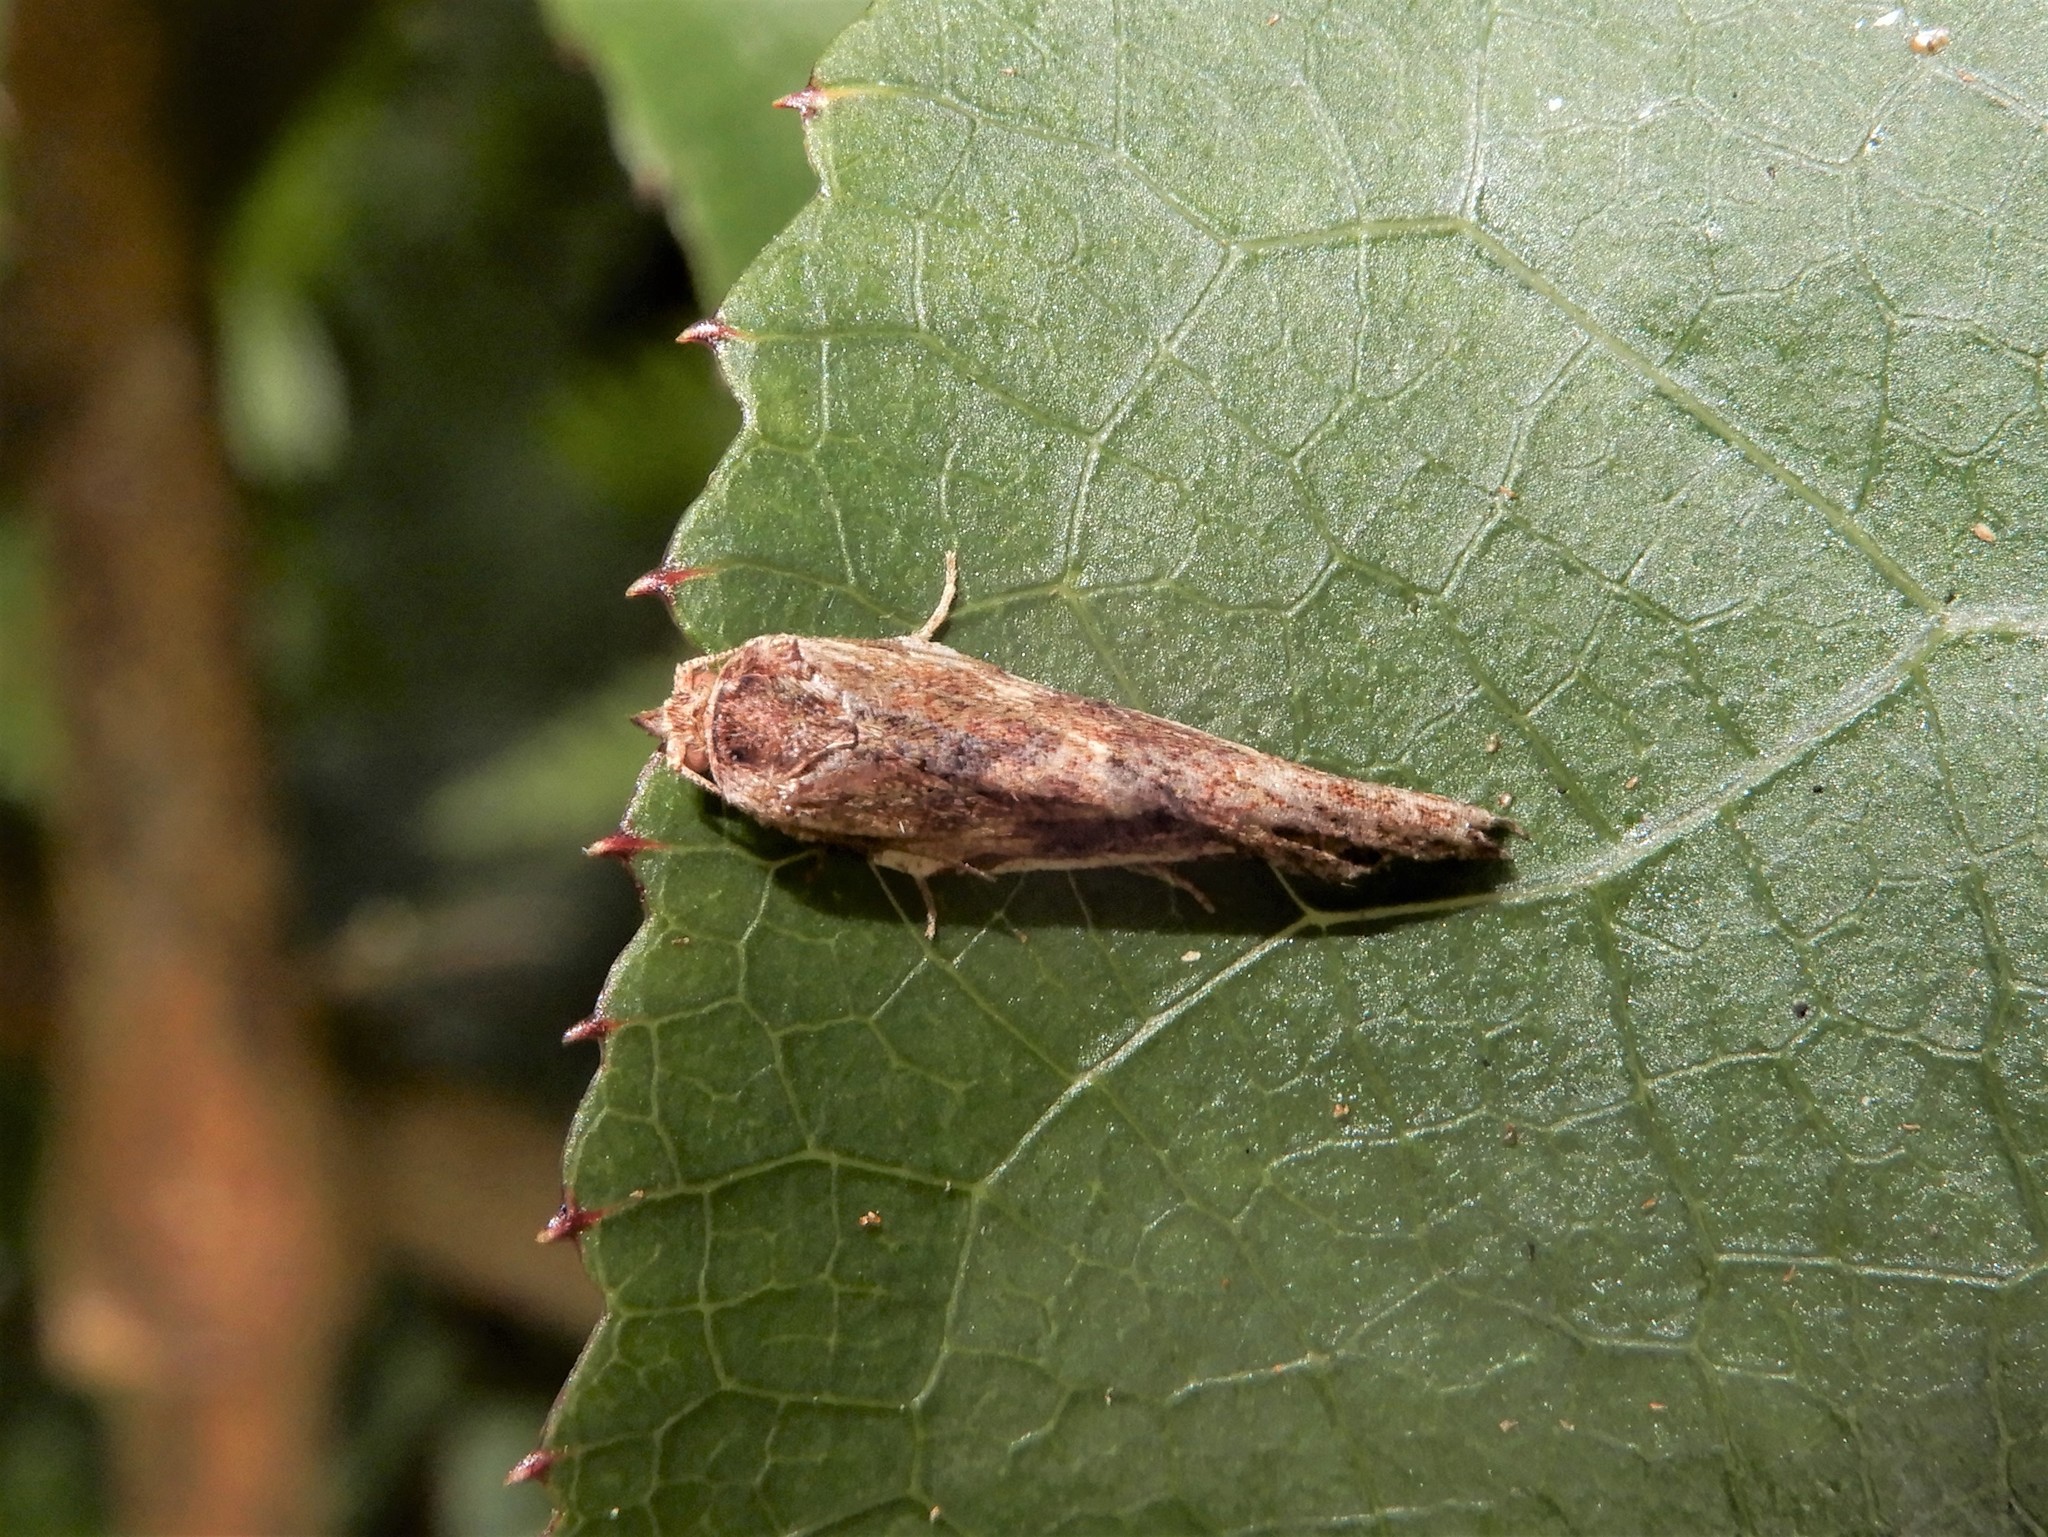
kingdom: Animalia
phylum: Arthropoda
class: Insecta
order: Lepidoptera
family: Tortricidae
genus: Epalxiphora
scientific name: Epalxiphora axenana
